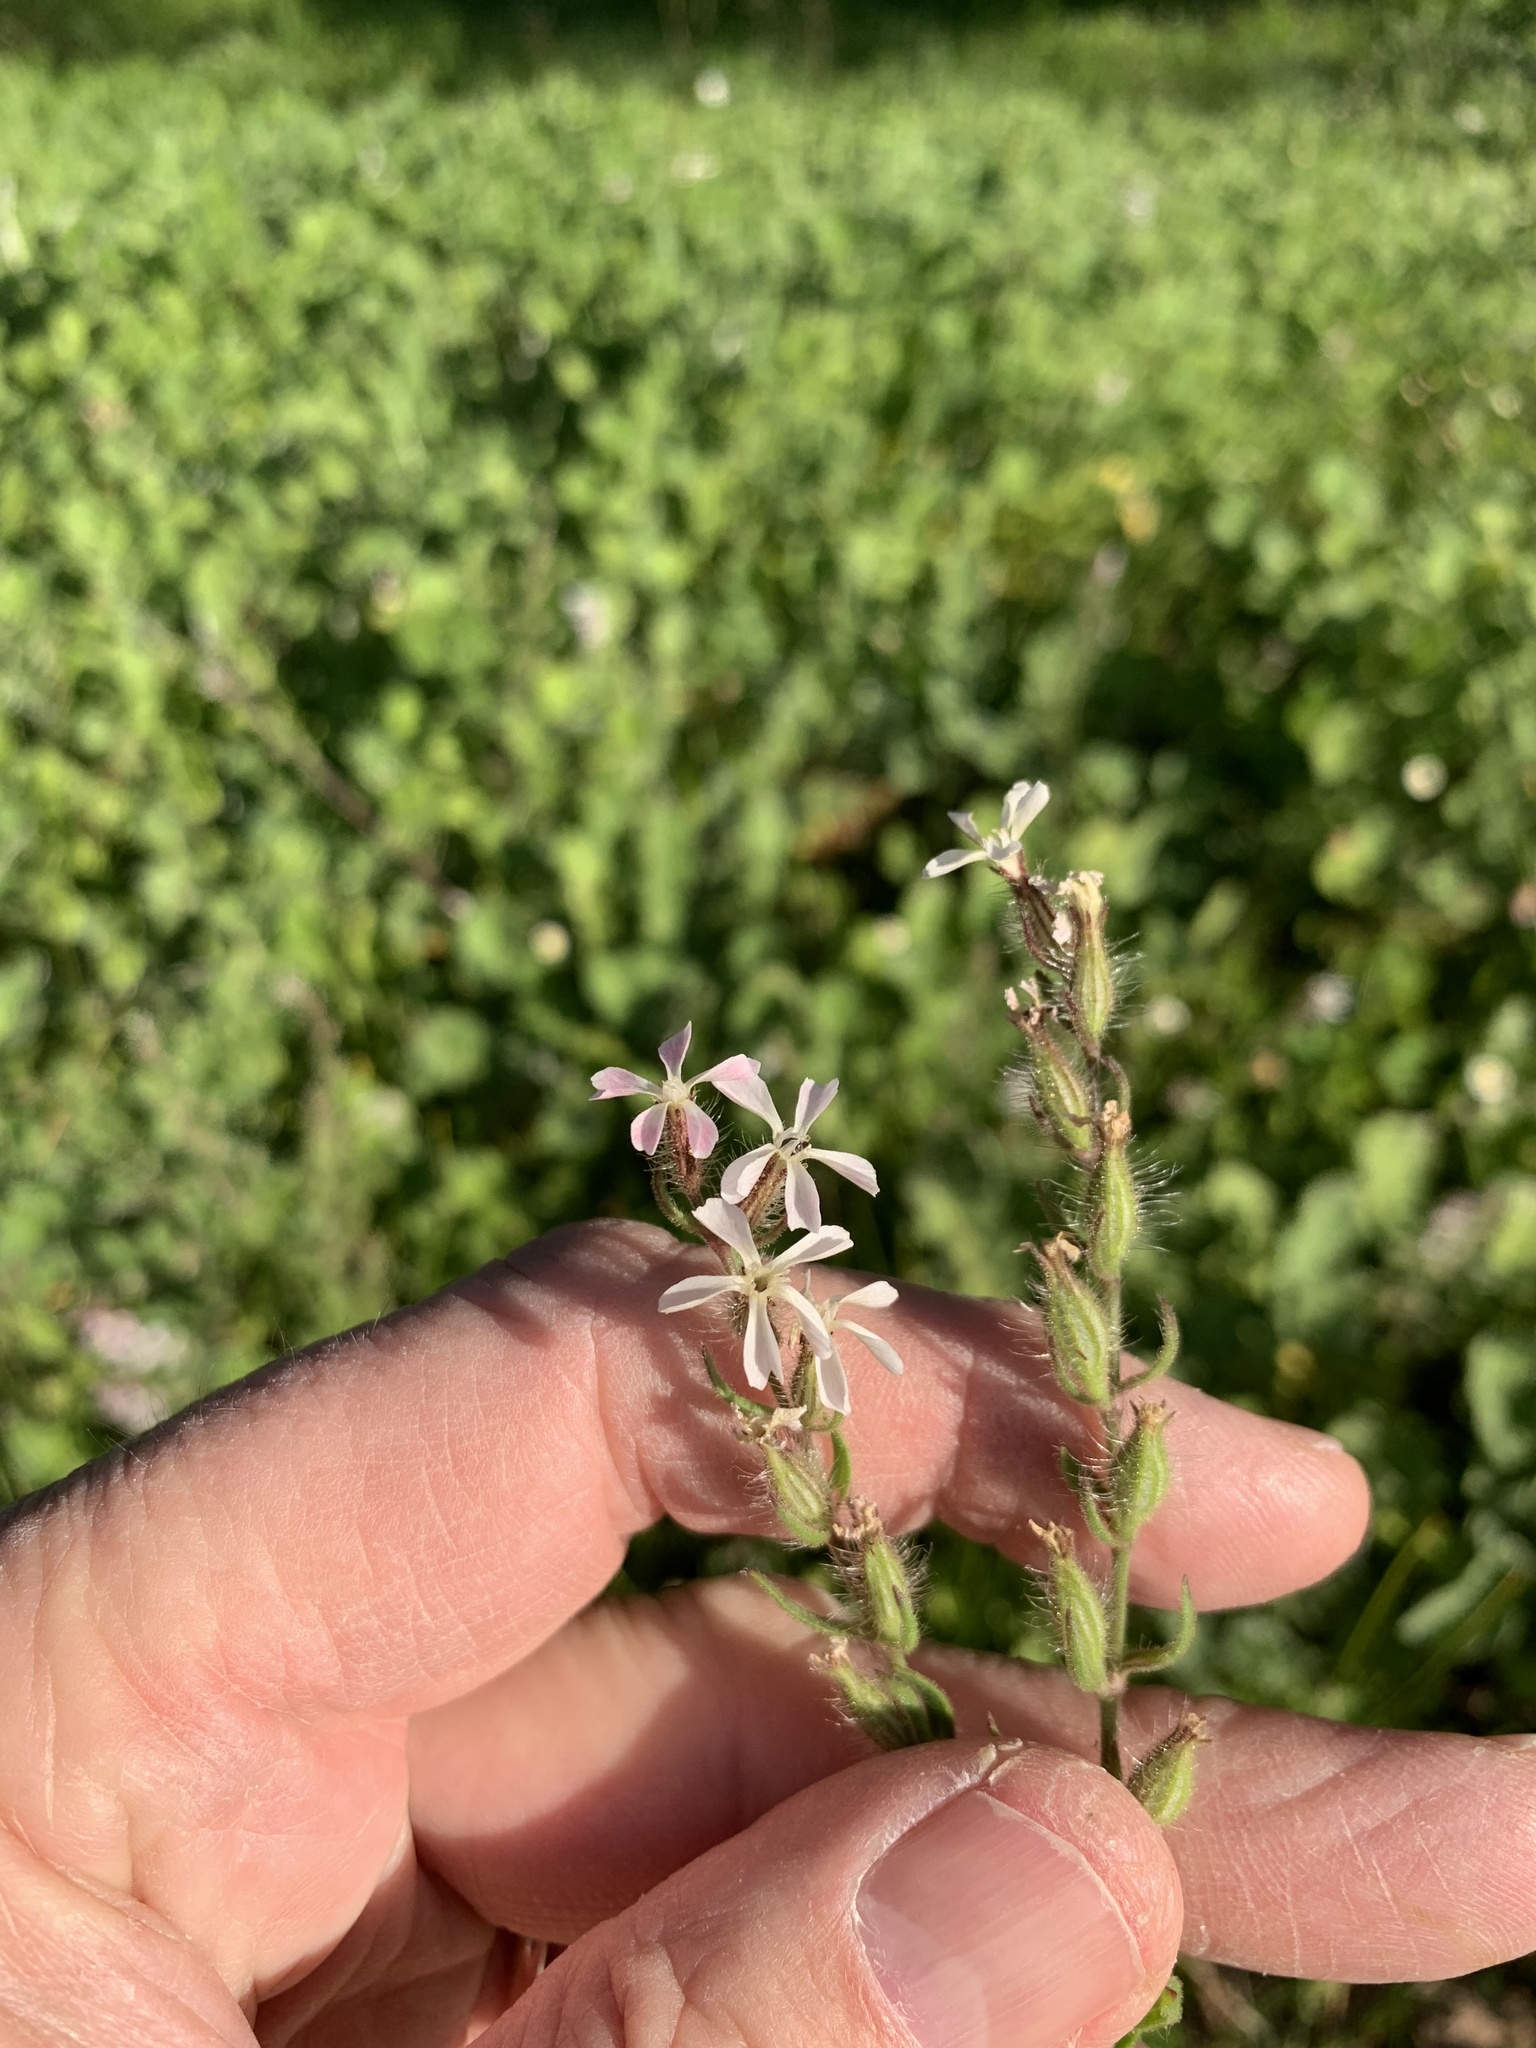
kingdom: Plantae
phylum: Tracheophyta
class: Magnoliopsida
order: Caryophyllales
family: Caryophyllaceae
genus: Silene
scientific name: Silene gallica
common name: Small-flowered catchfly
